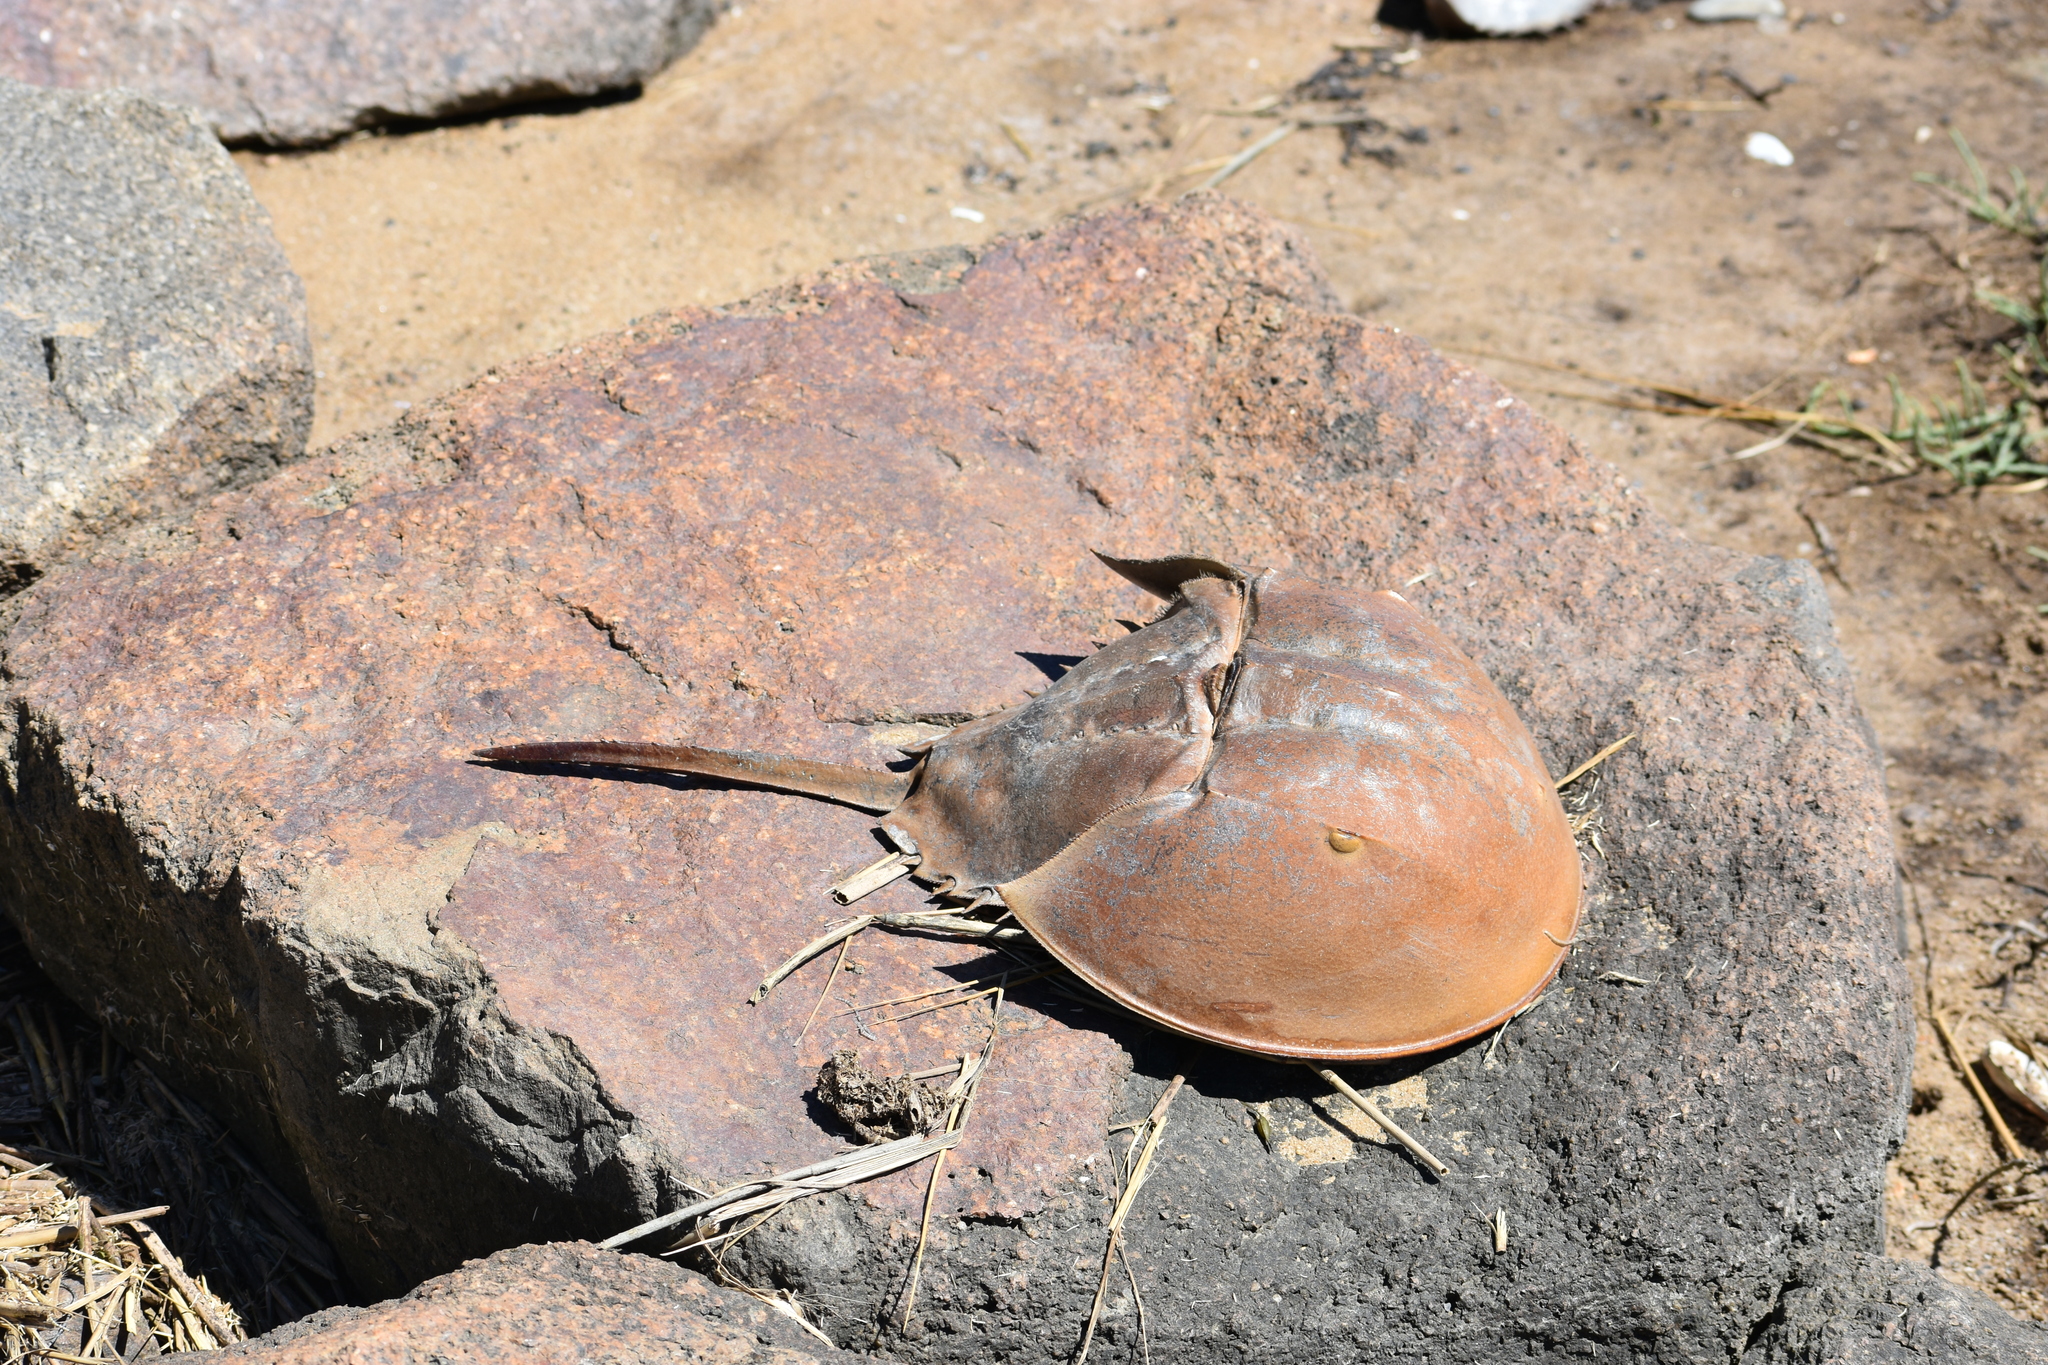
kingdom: Animalia
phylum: Arthropoda
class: Merostomata
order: Xiphosurida
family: Limulidae
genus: Limulus
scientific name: Limulus polyphemus
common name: Horseshoe crab
